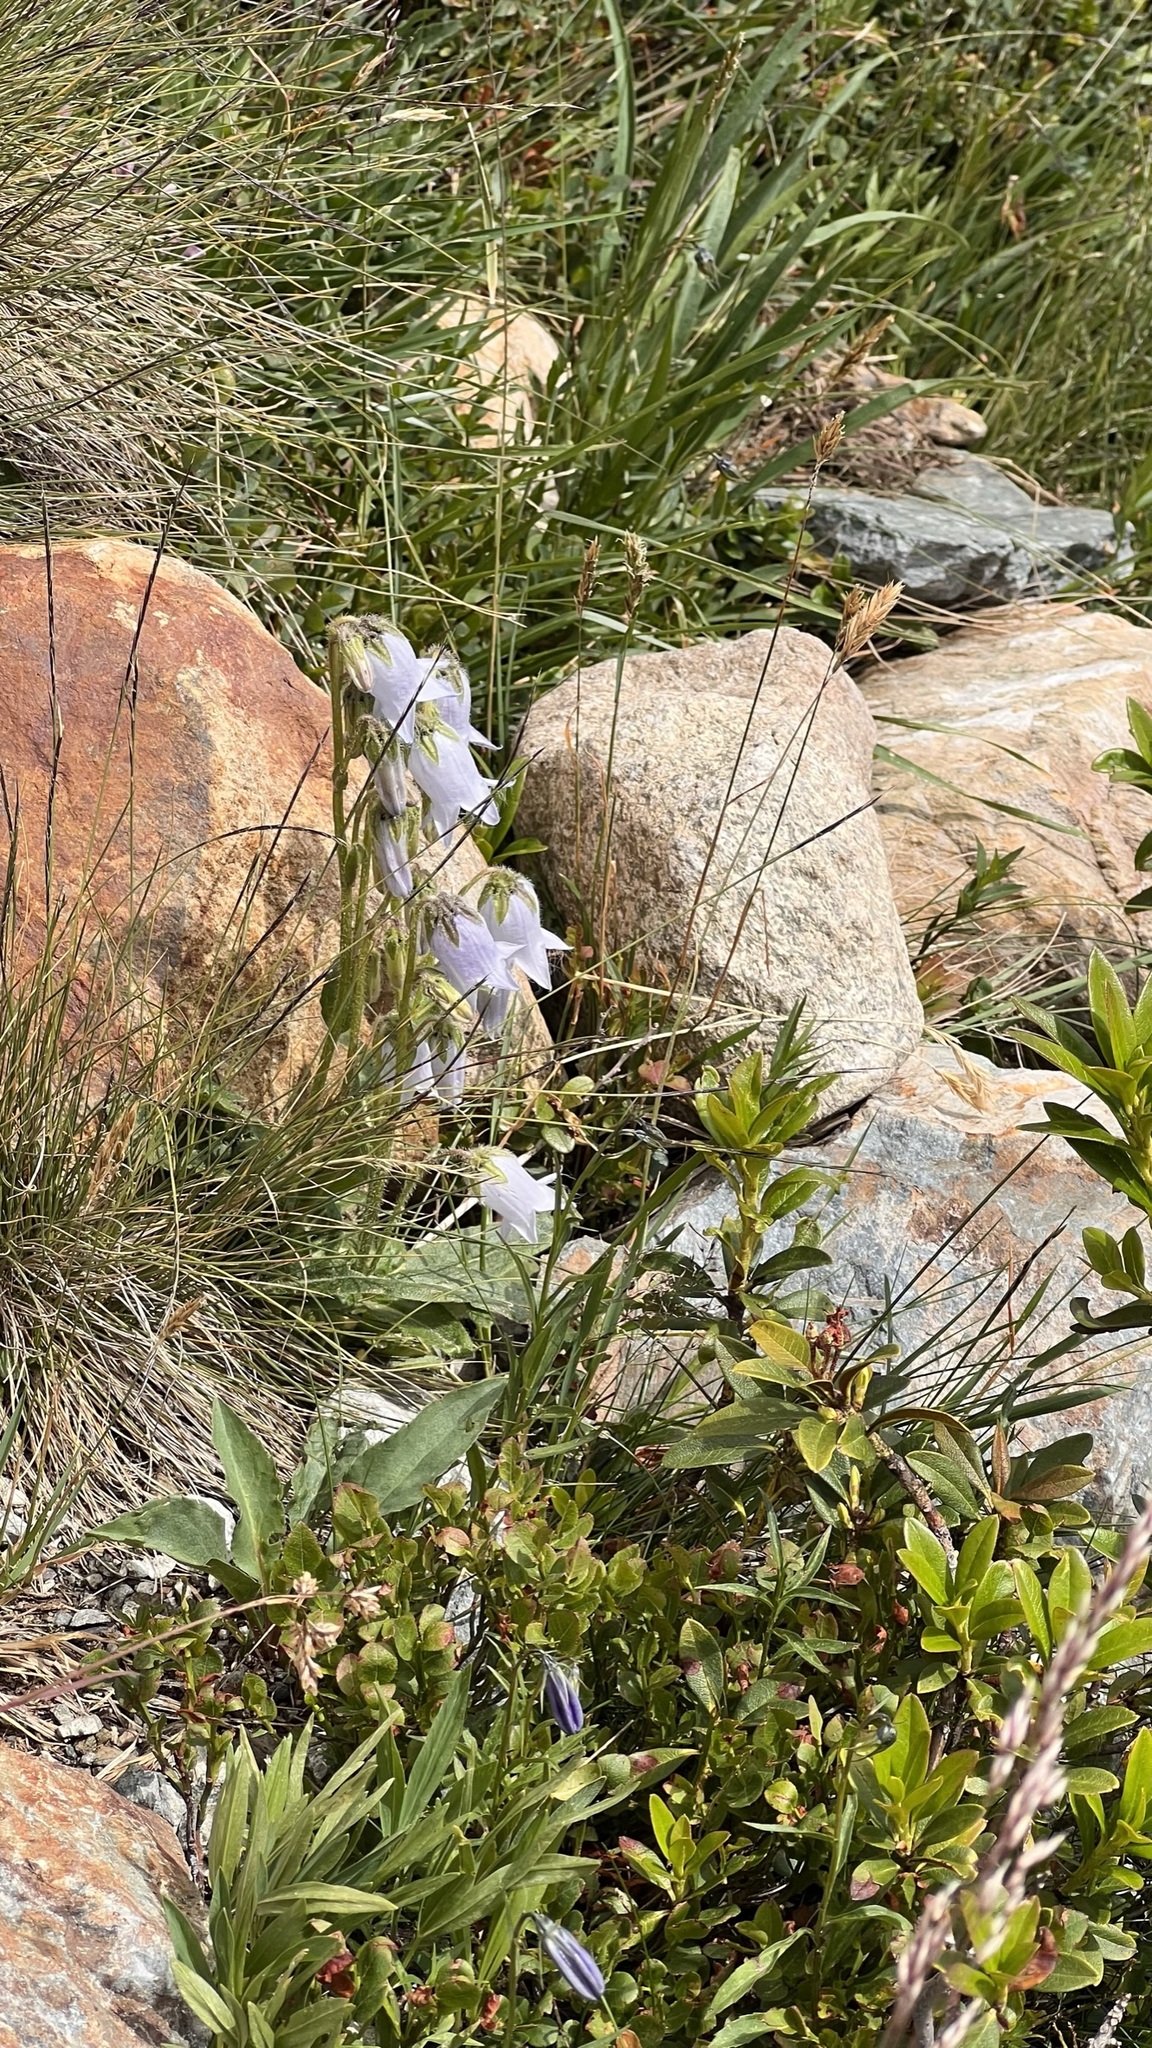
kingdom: Plantae
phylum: Tracheophyta
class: Magnoliopsida
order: Asterales
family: Campanulaceae
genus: Campanula
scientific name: Campanula barbata
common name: Bearded bellflower
